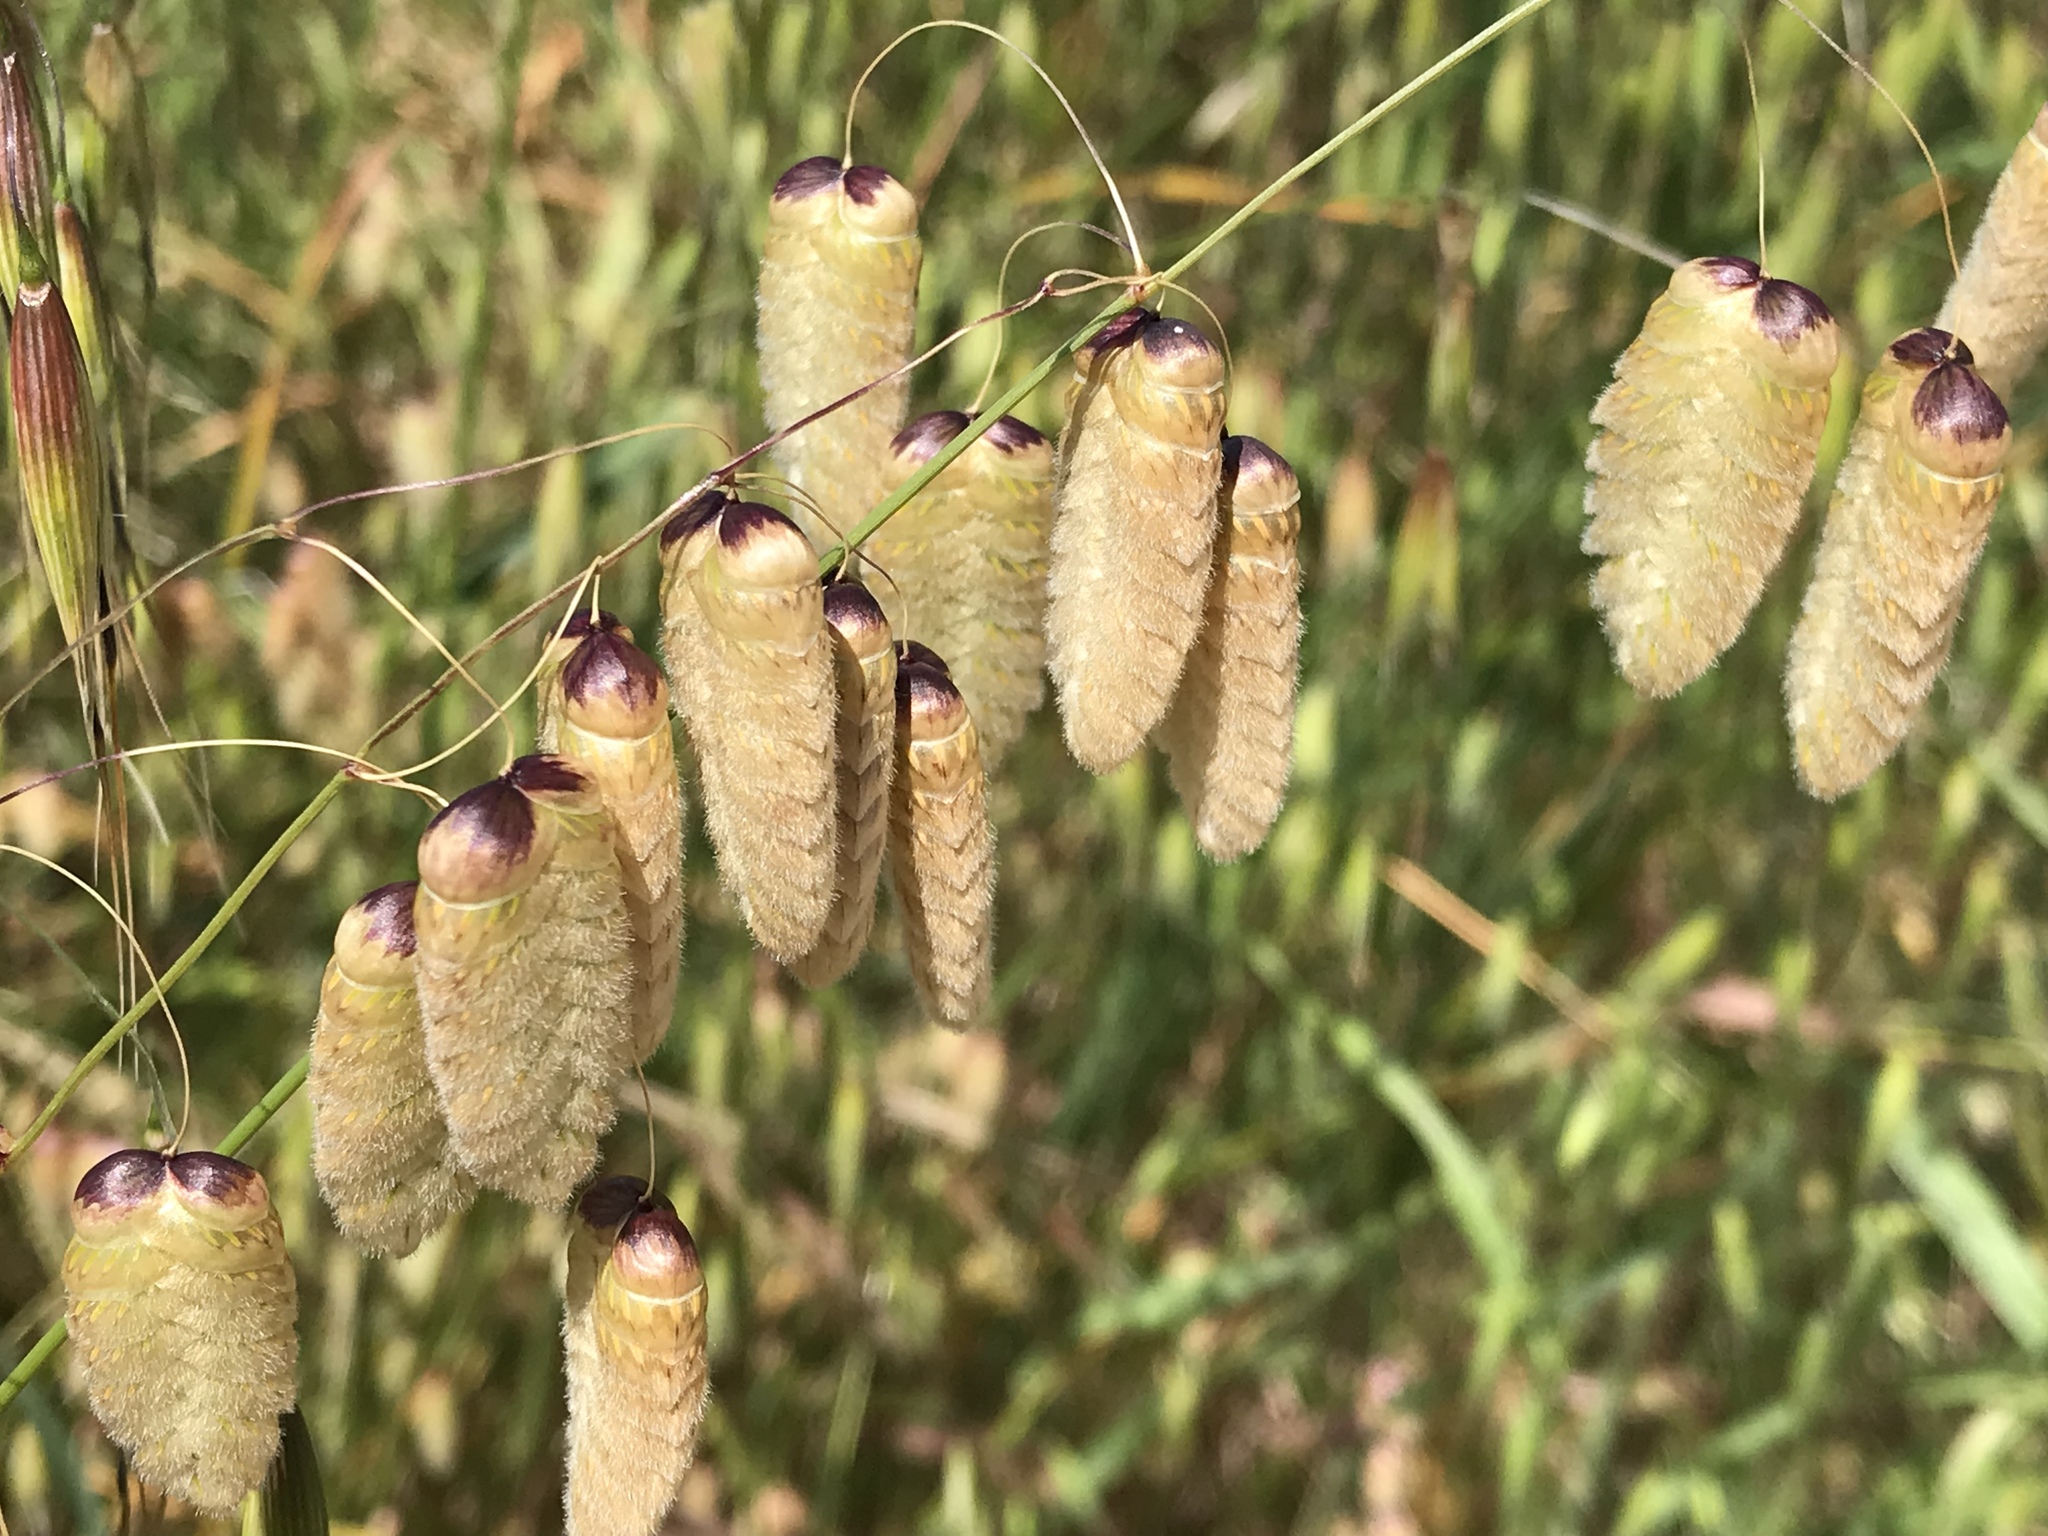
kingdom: Plantae
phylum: Tracheophyta
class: Liliopsida
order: Poales
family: Poaceae
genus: Briza
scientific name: Briza maxima
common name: Big quakinggrass
